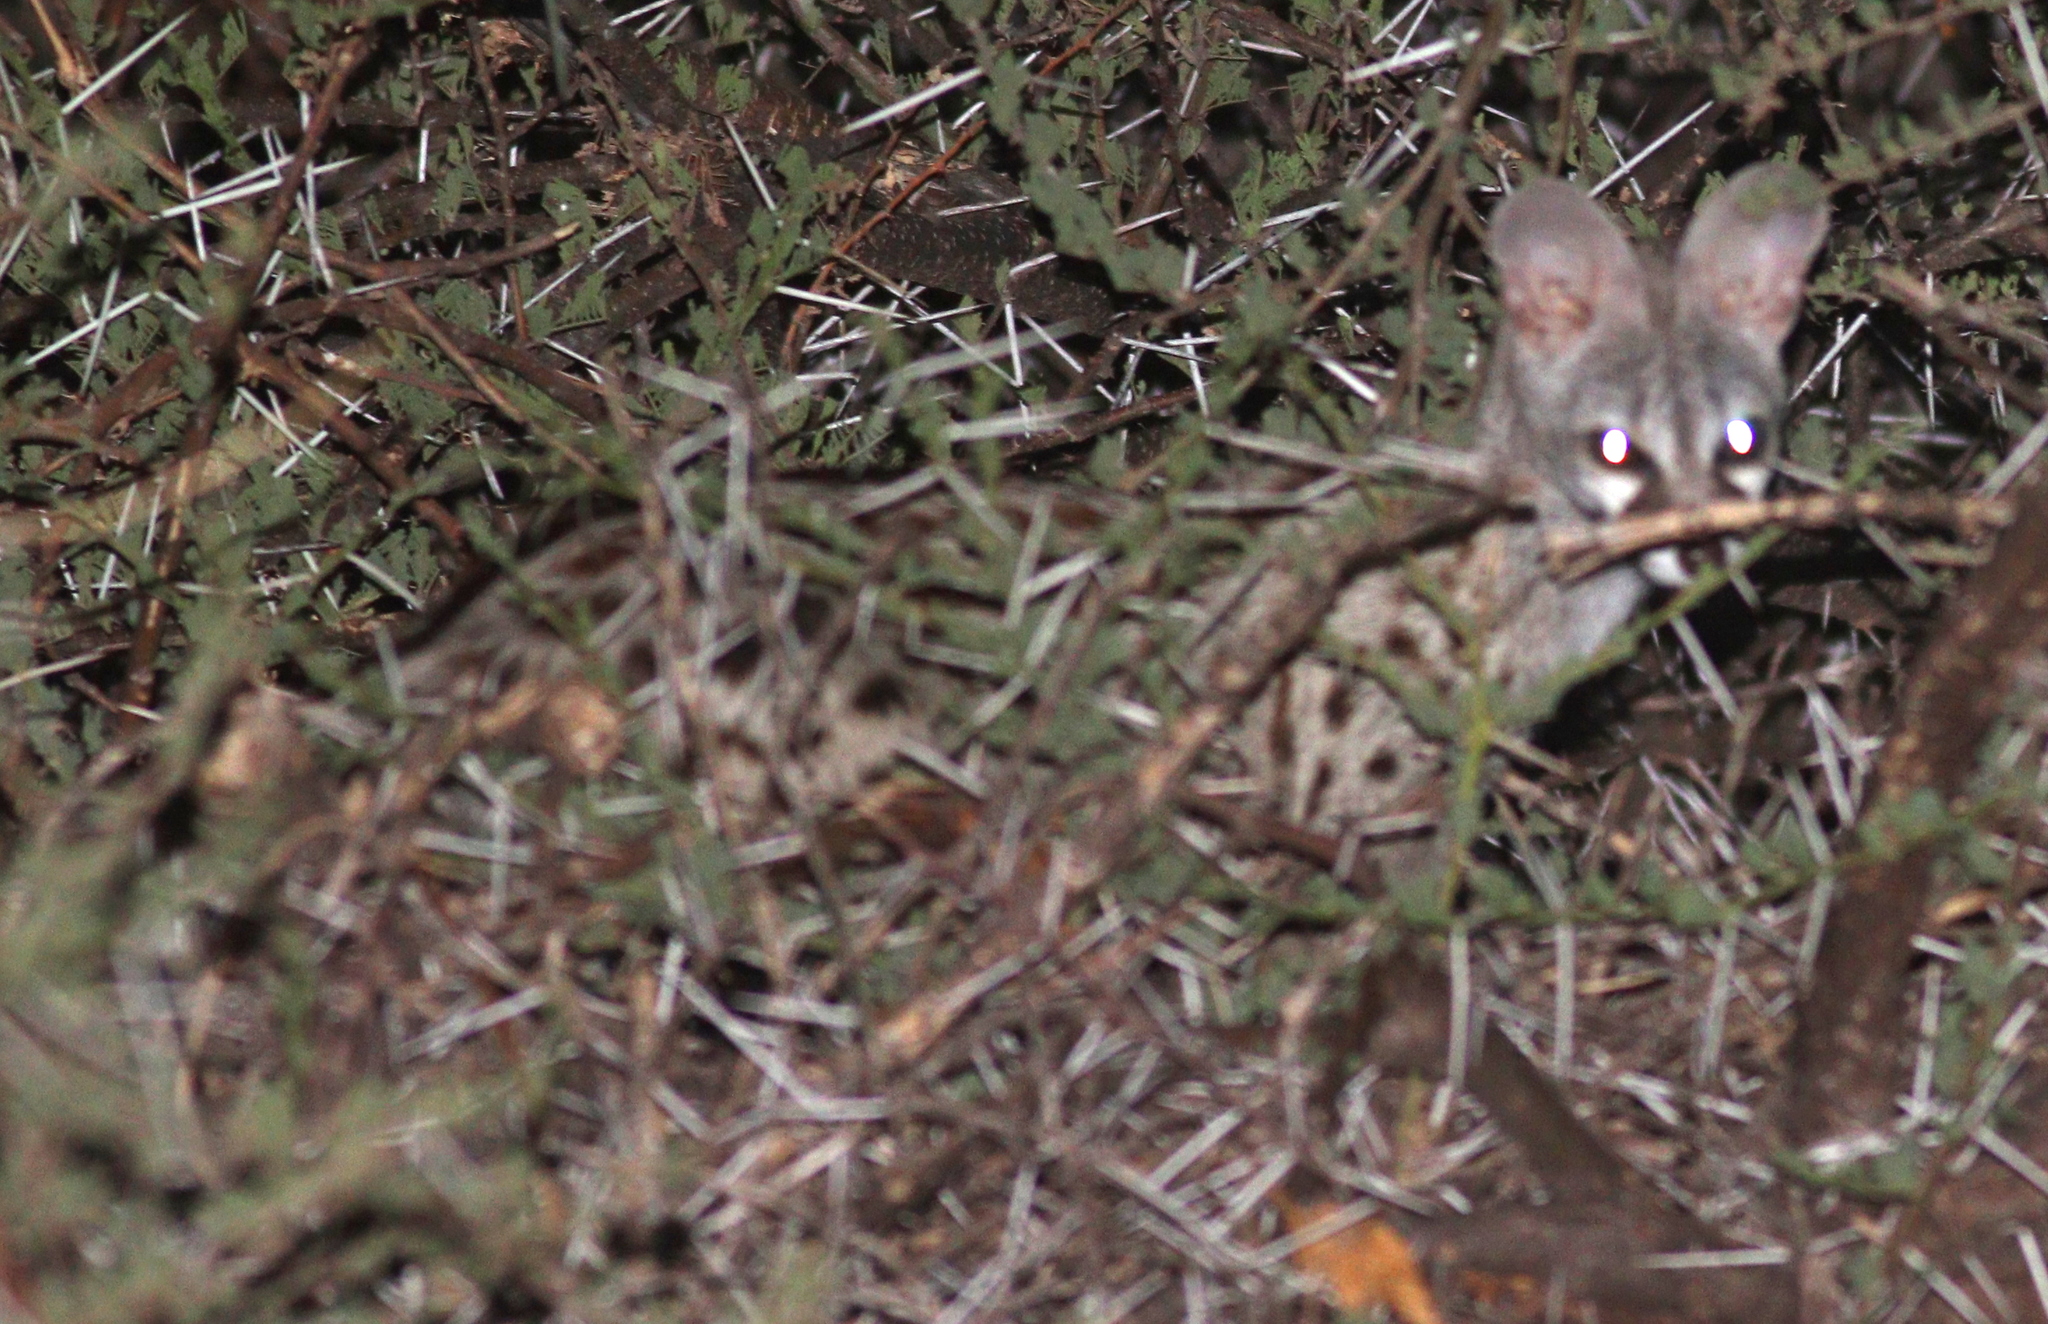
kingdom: Animalia
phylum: Chordata
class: Mammalia
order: Carnivora
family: Viverridae
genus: Genetta
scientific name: Genetta maculata
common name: Rusty-spotted genet
